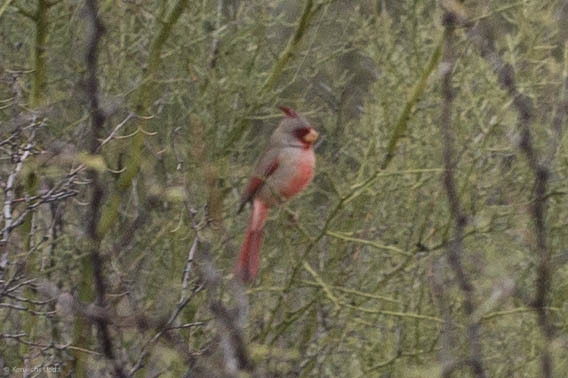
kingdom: Animalia
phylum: Chordata
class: Aves
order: Passeriformes
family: Cardinalidae
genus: Cardinalis
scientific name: Cardinalis sinuatus
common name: Pyrrhuloxia
